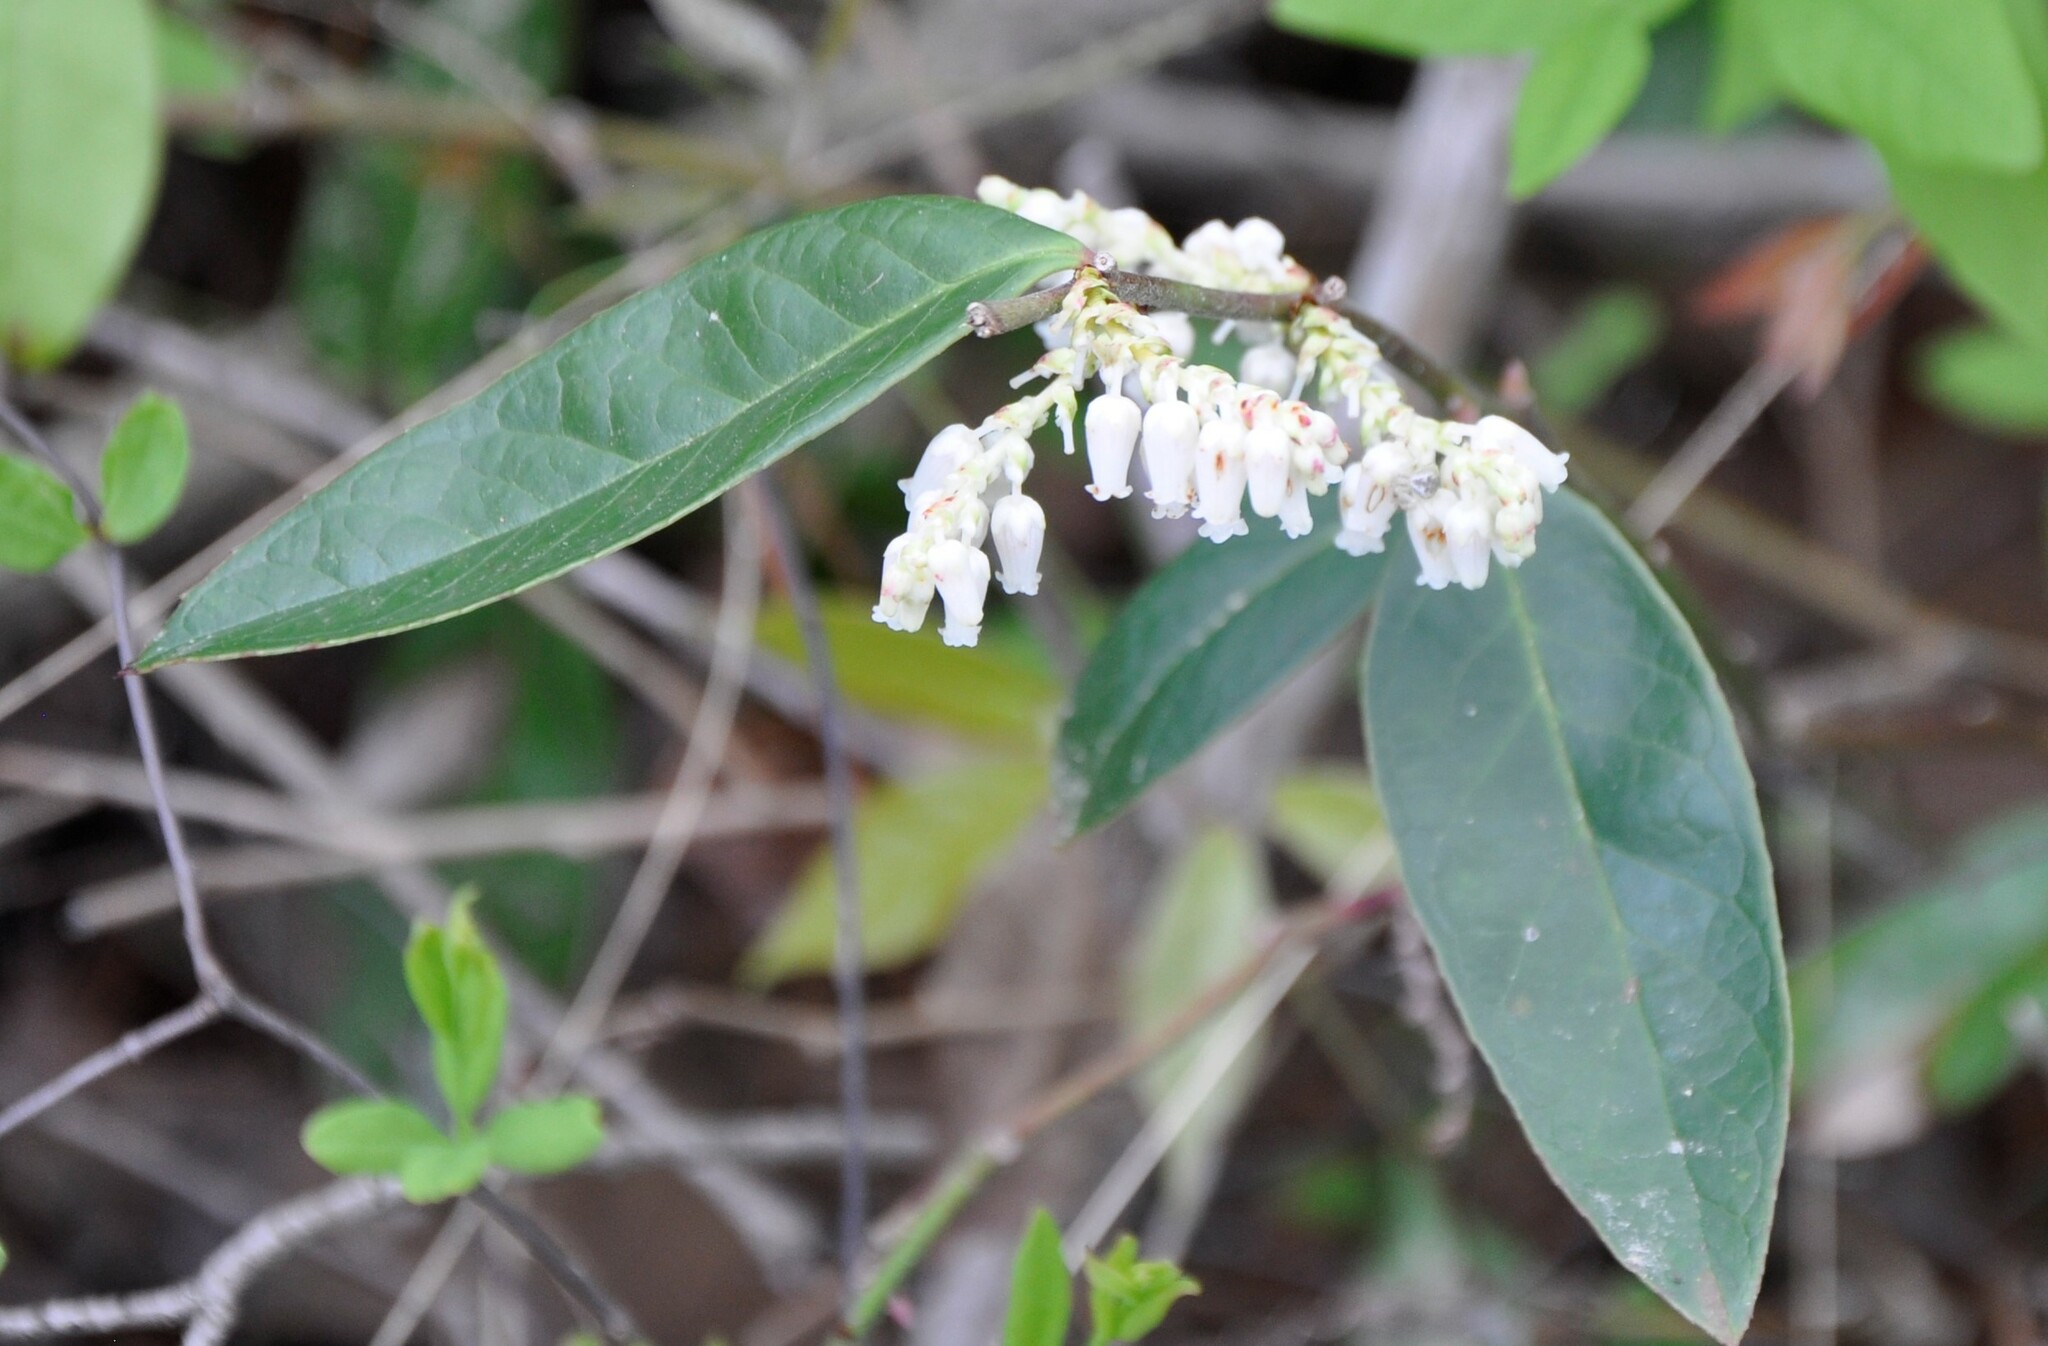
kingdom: Plantae
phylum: Tracheophyta
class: Magnoliopsida
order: Ericales
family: Ericaceae
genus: Leucothoe
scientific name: Leucothoe axillaris
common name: Leucothoe
